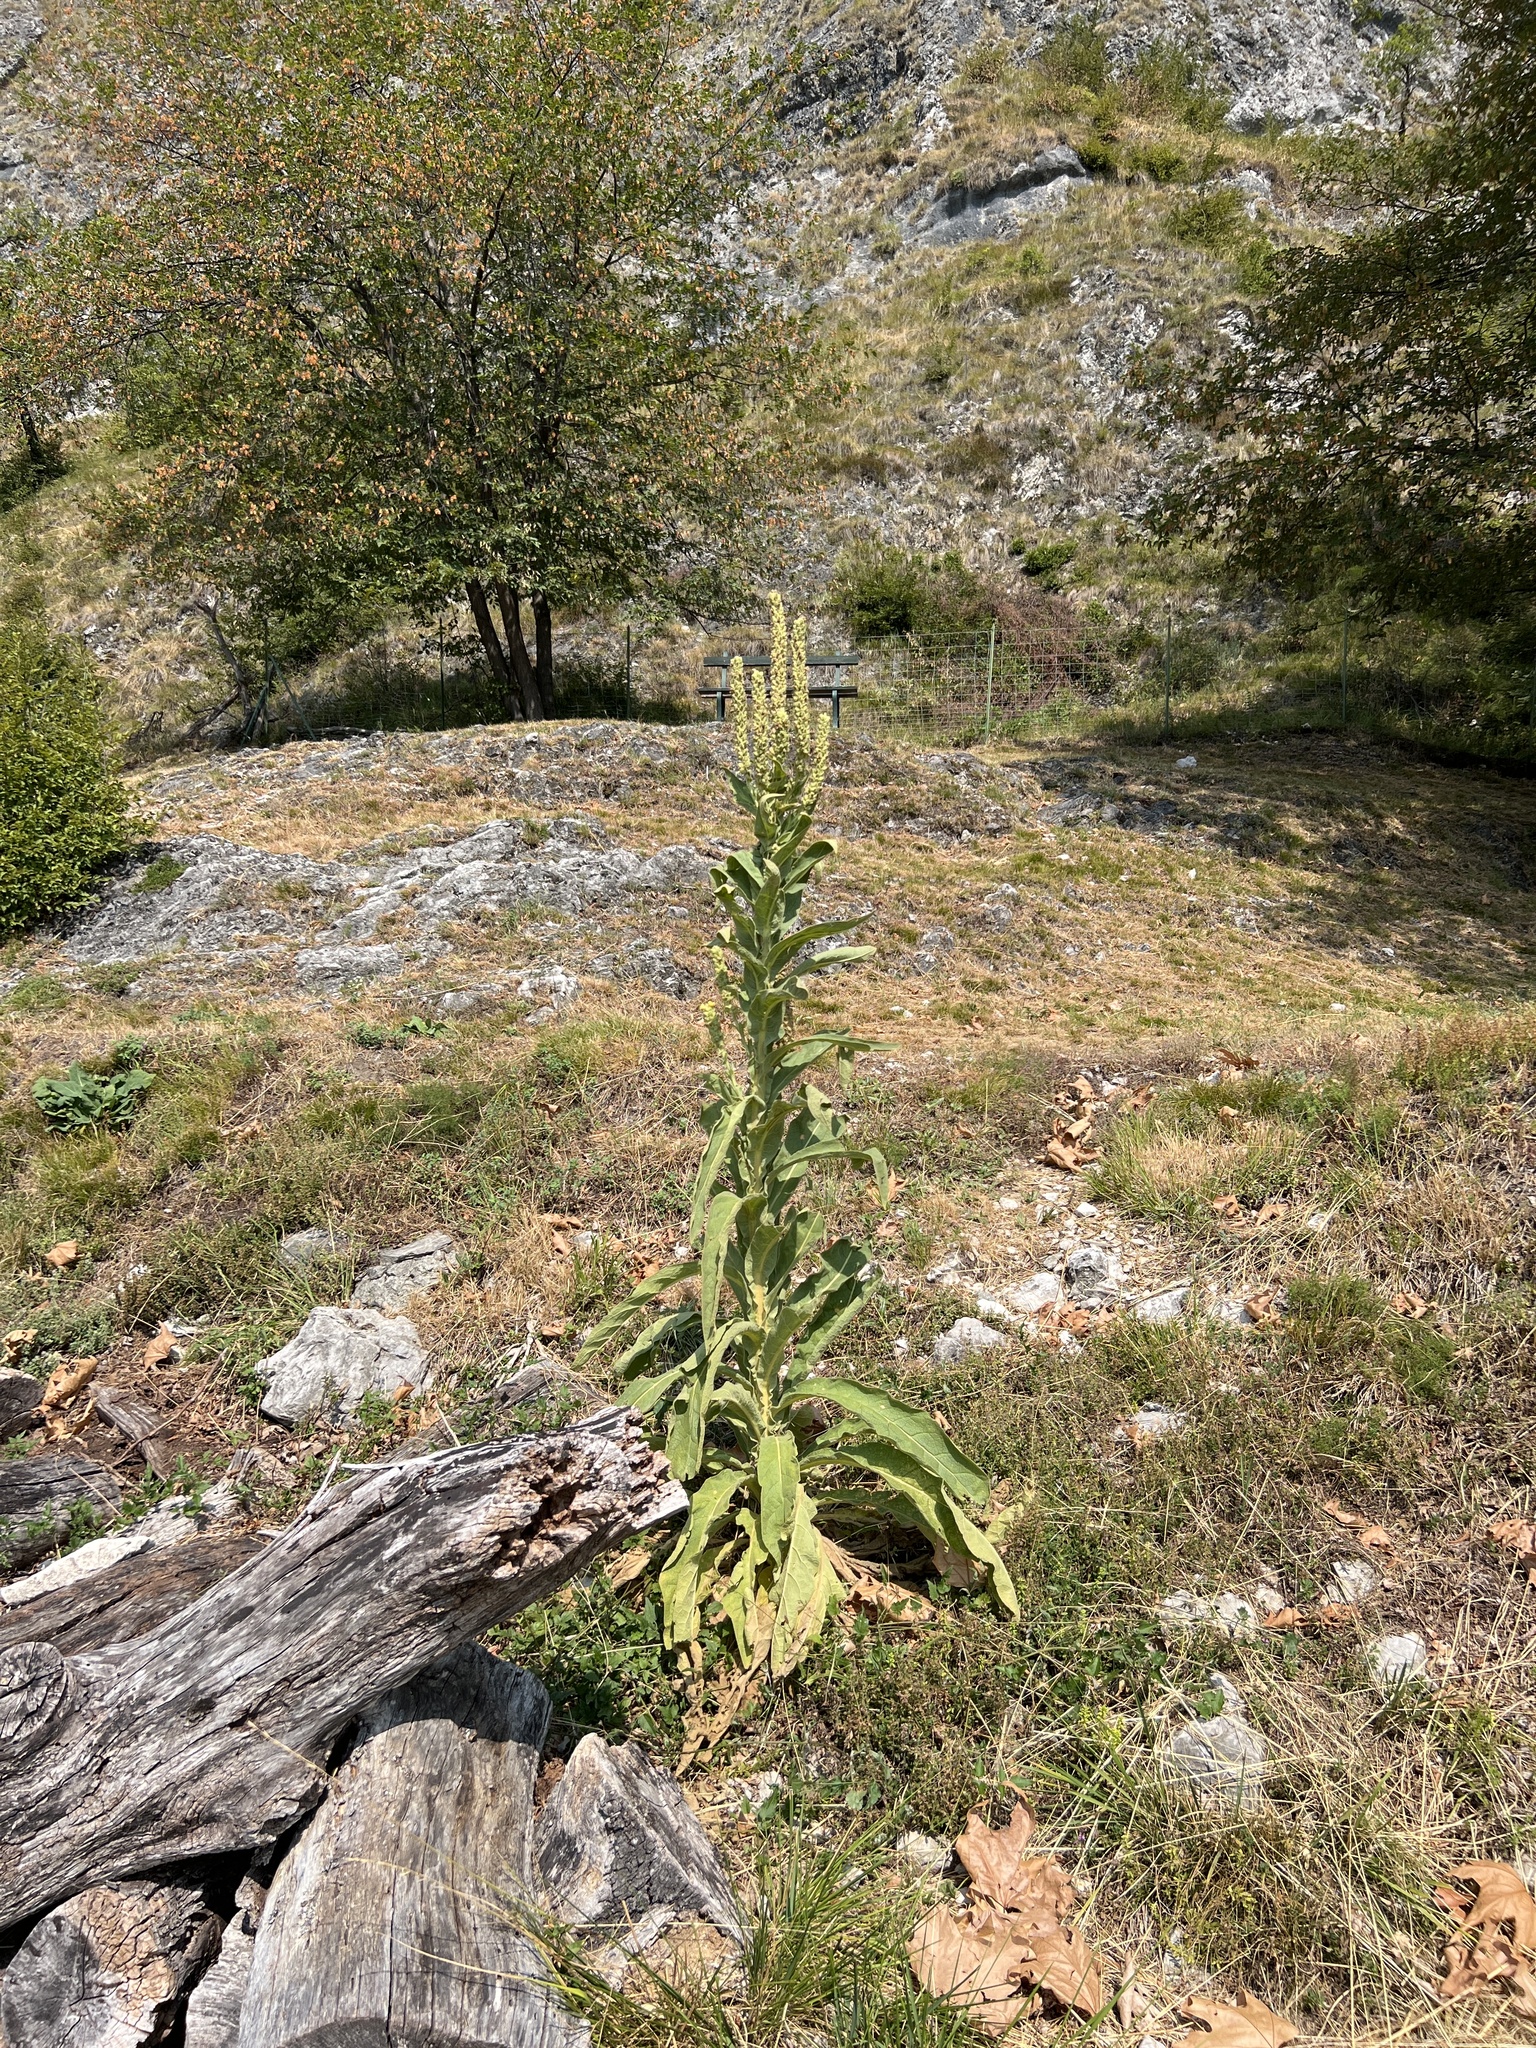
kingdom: Plantae
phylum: Tracheophyta
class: Magnoliopsida
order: Lamiales
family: Scrophulariaceae
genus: Verbascum
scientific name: Verbascum thapsus
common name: Common mullein
